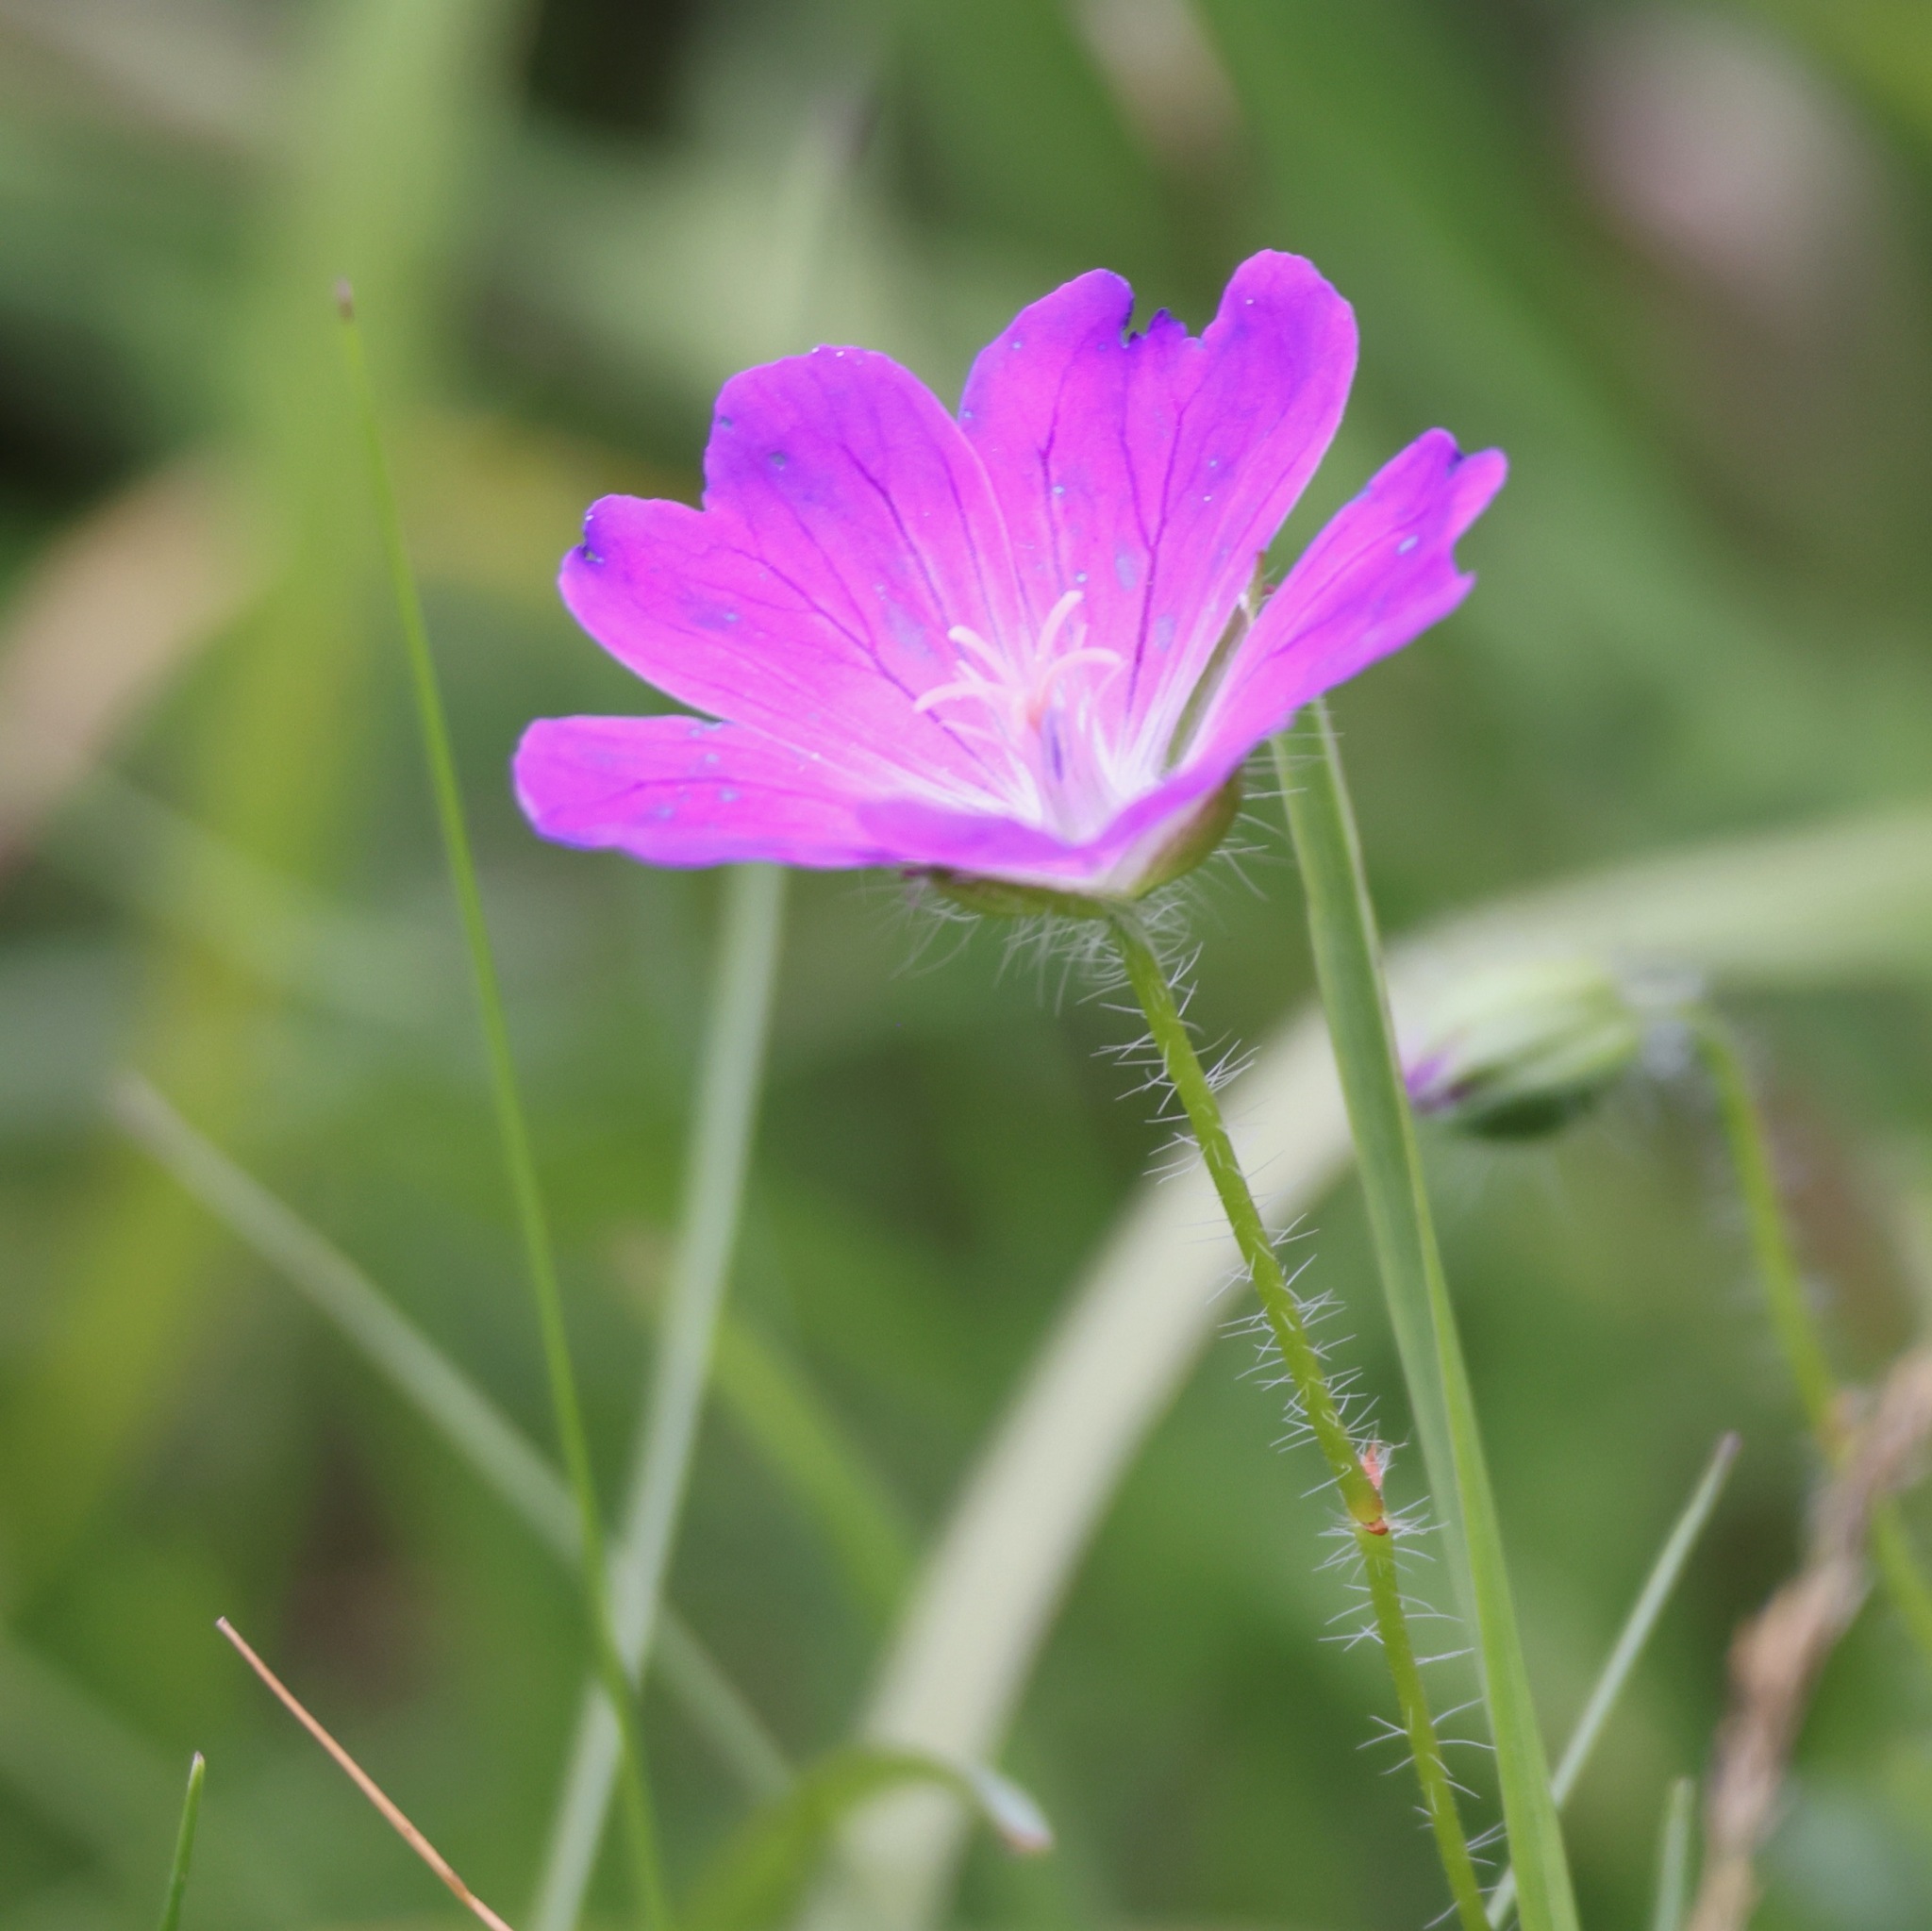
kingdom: Plantae
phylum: Tracheophyta
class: Magnoliopsida
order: Geraniales
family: Geraniaceae
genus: Geranium
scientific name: Geranium sanguineum
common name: Bloody crane's-bill
